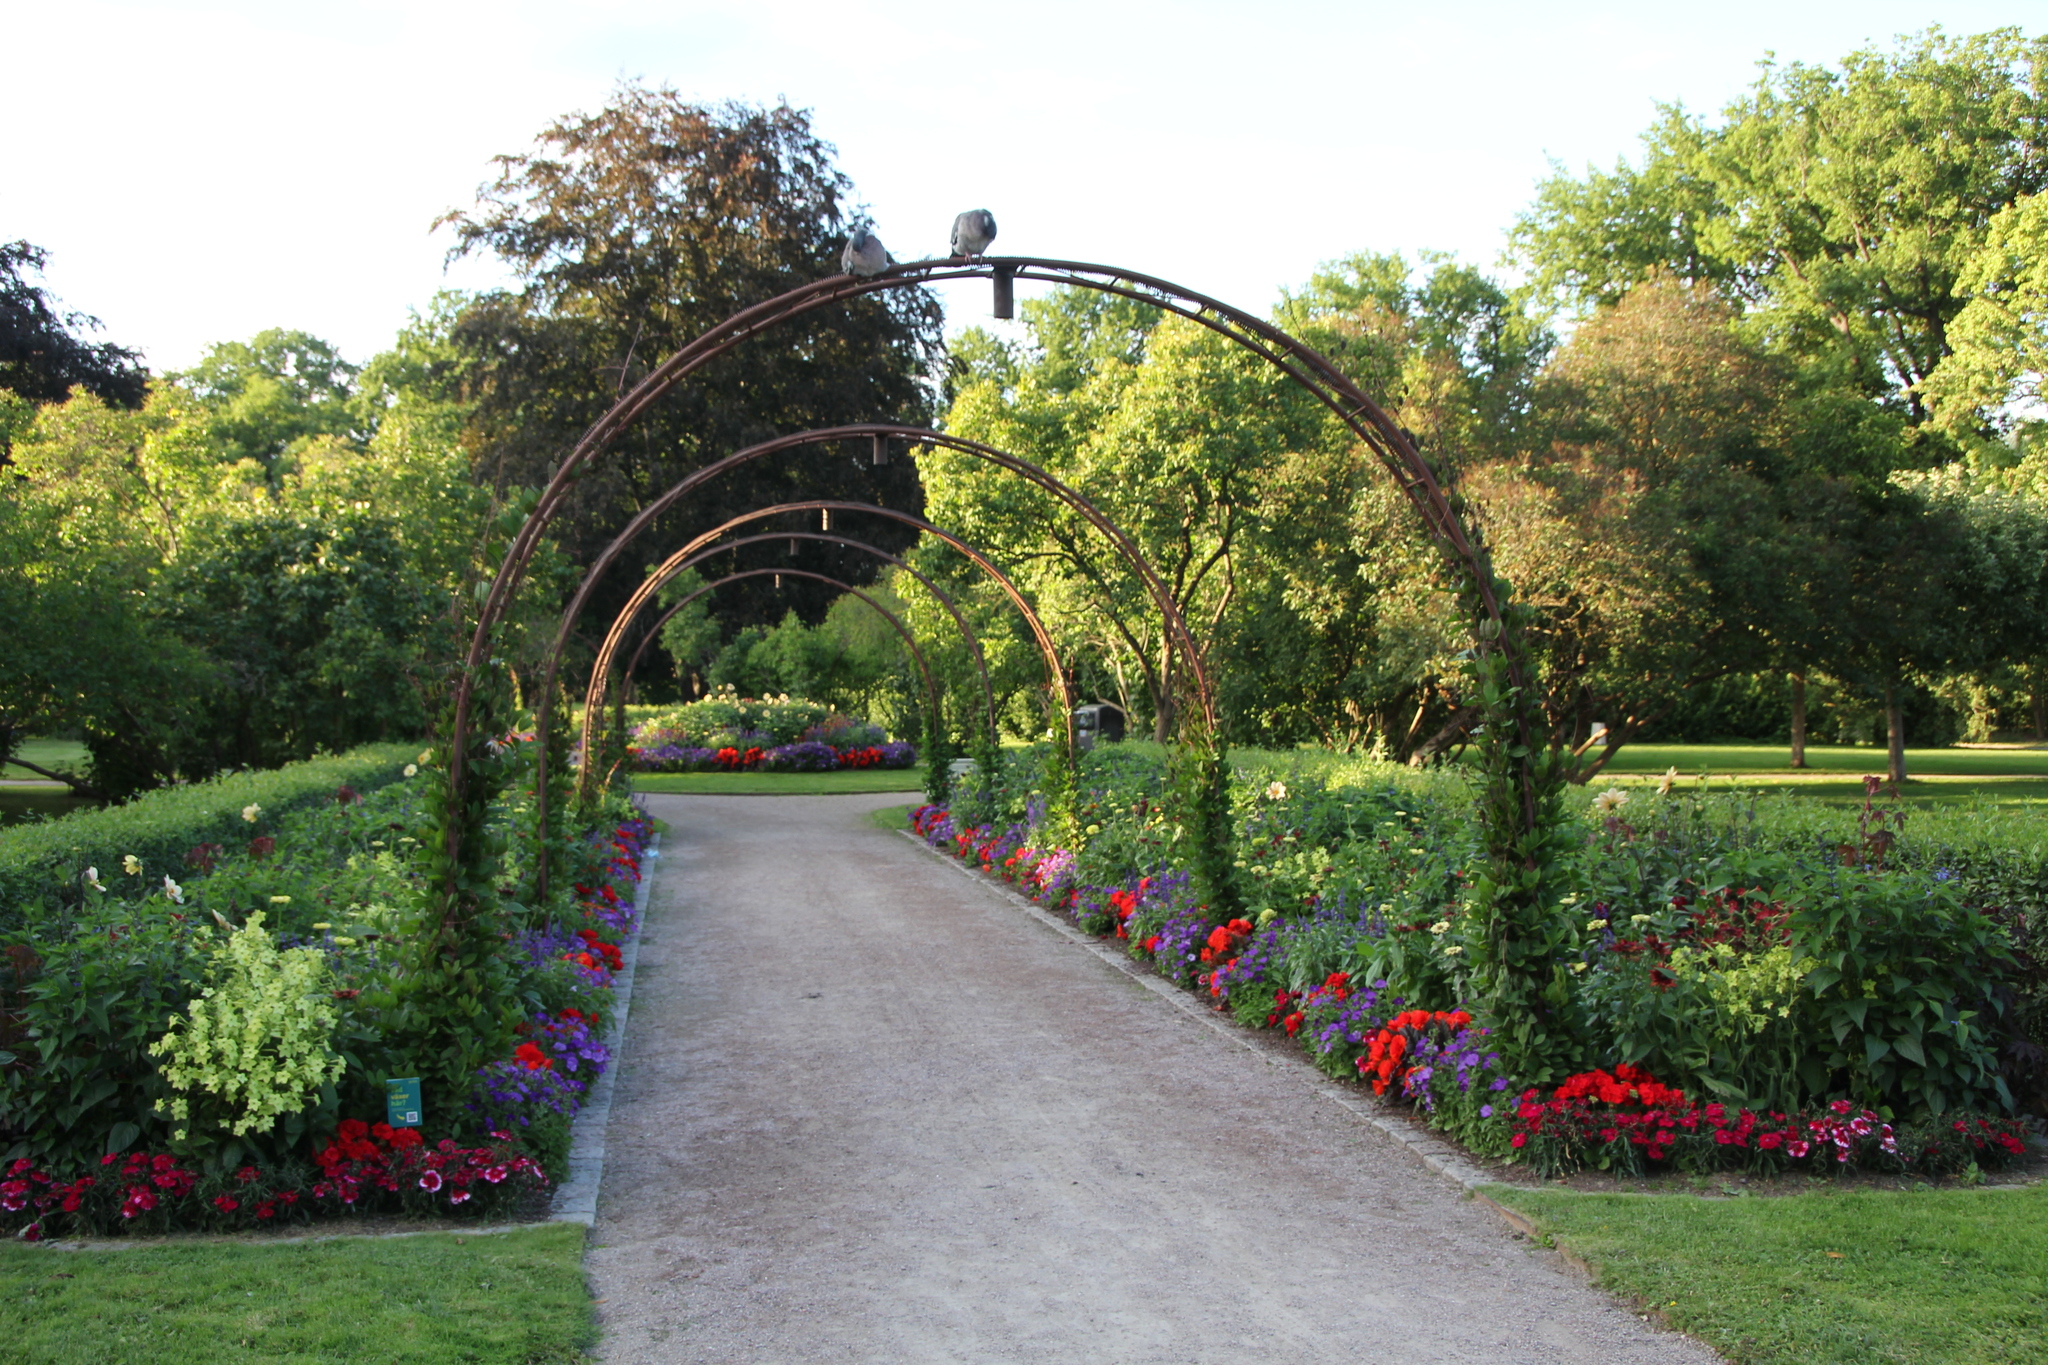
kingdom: Animalia
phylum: Chordata
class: Aves
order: Columbiformes
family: Columbidae
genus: Columba
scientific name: Columba palumbus
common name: Common wood pigeon
